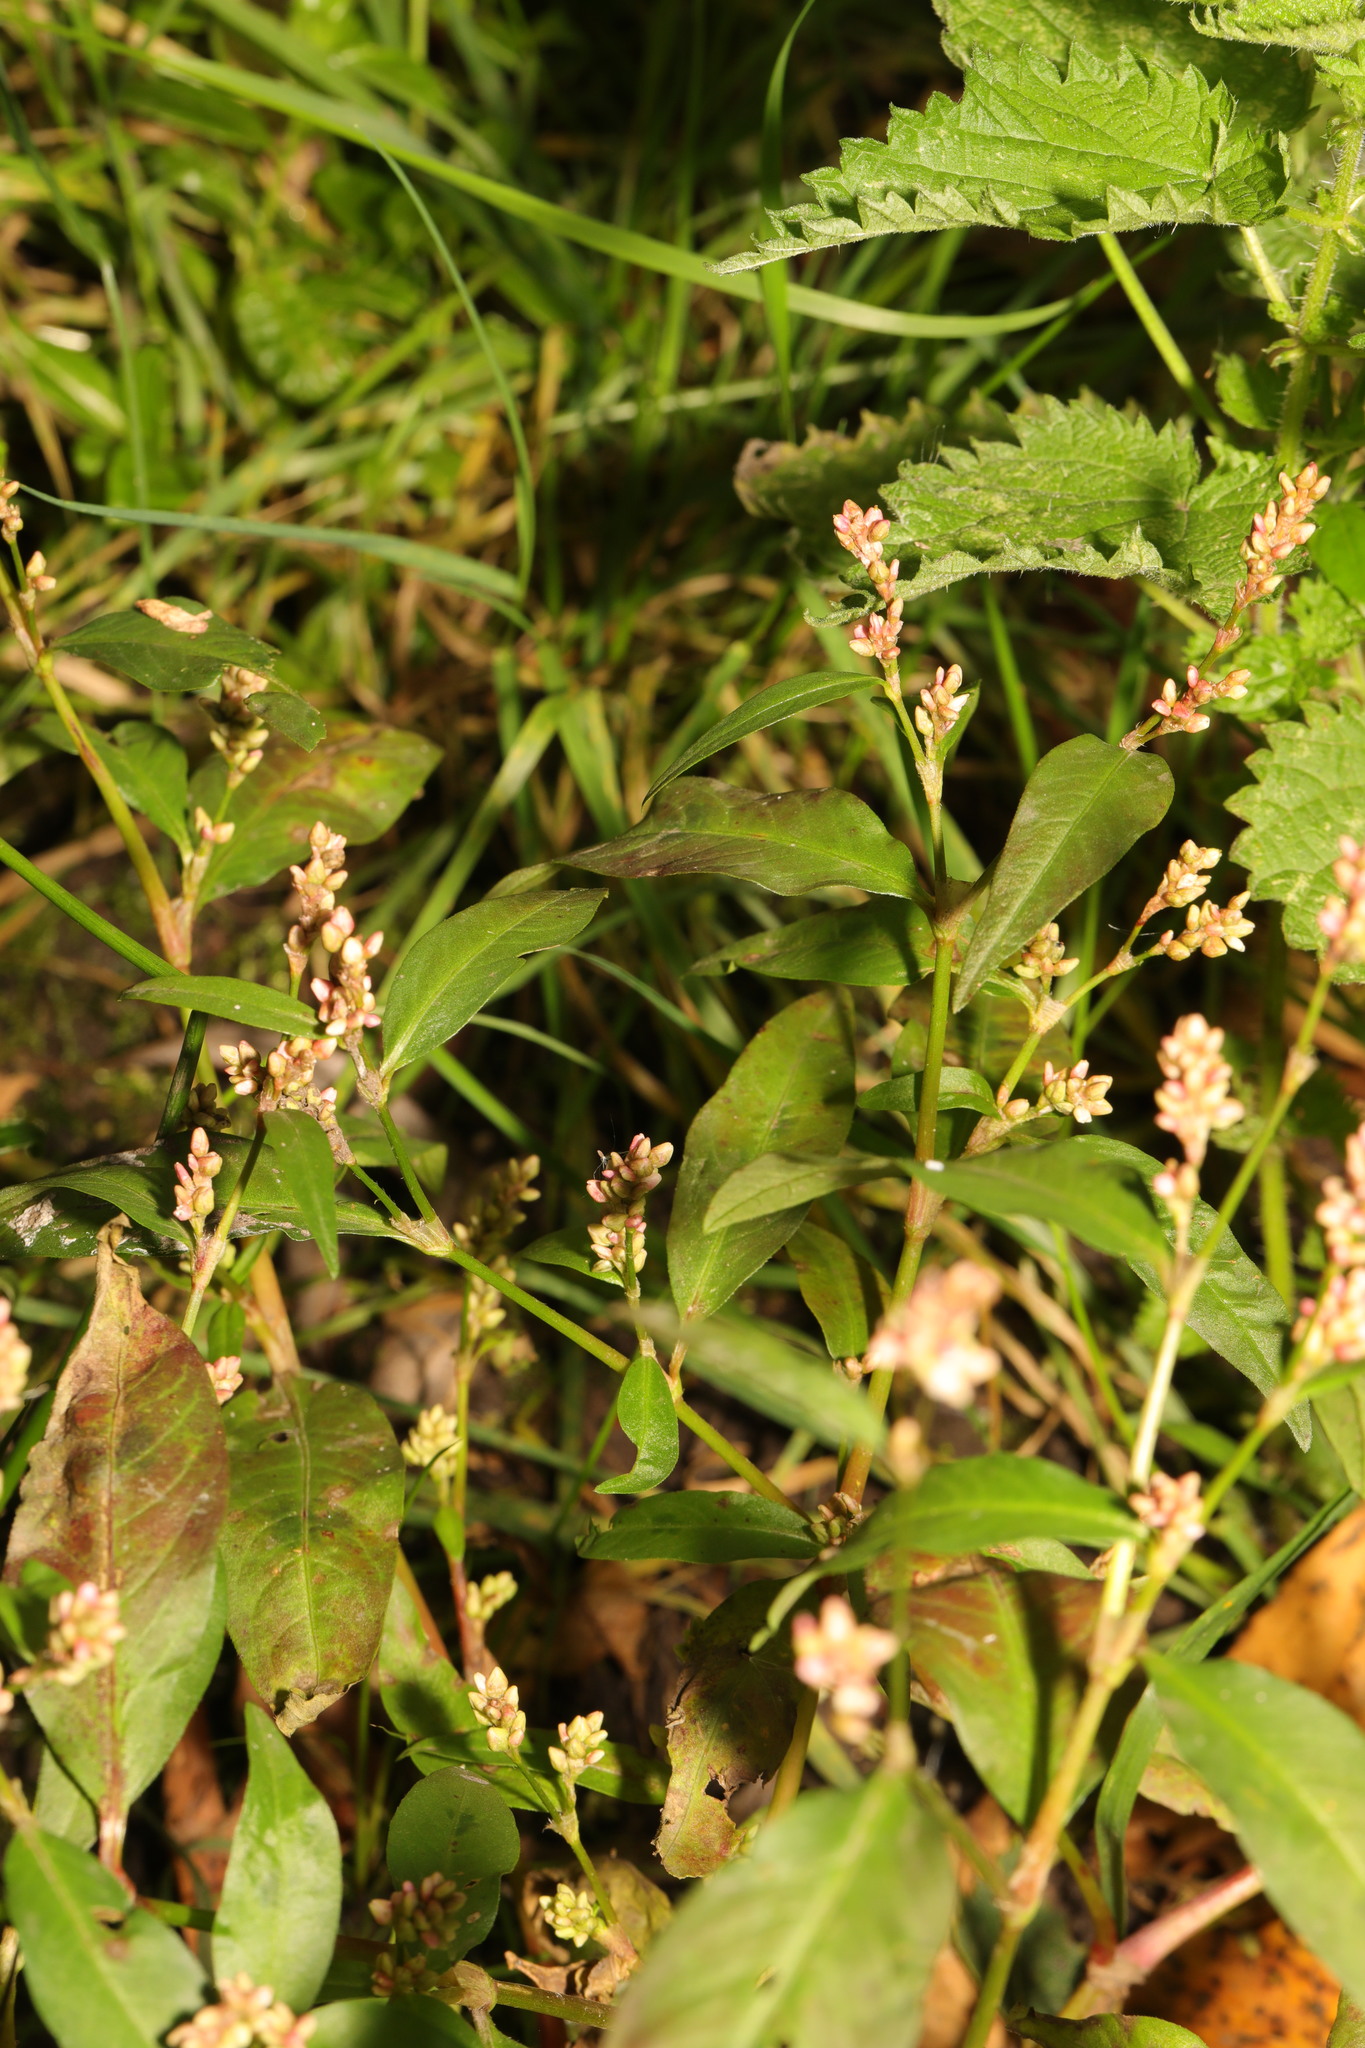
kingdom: Plantae
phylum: Tracheophyta
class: Magnoliopsida
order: Caryophyllales
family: Polygonaceae
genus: Persicaria
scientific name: Persicaria maculosa
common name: Redshank
